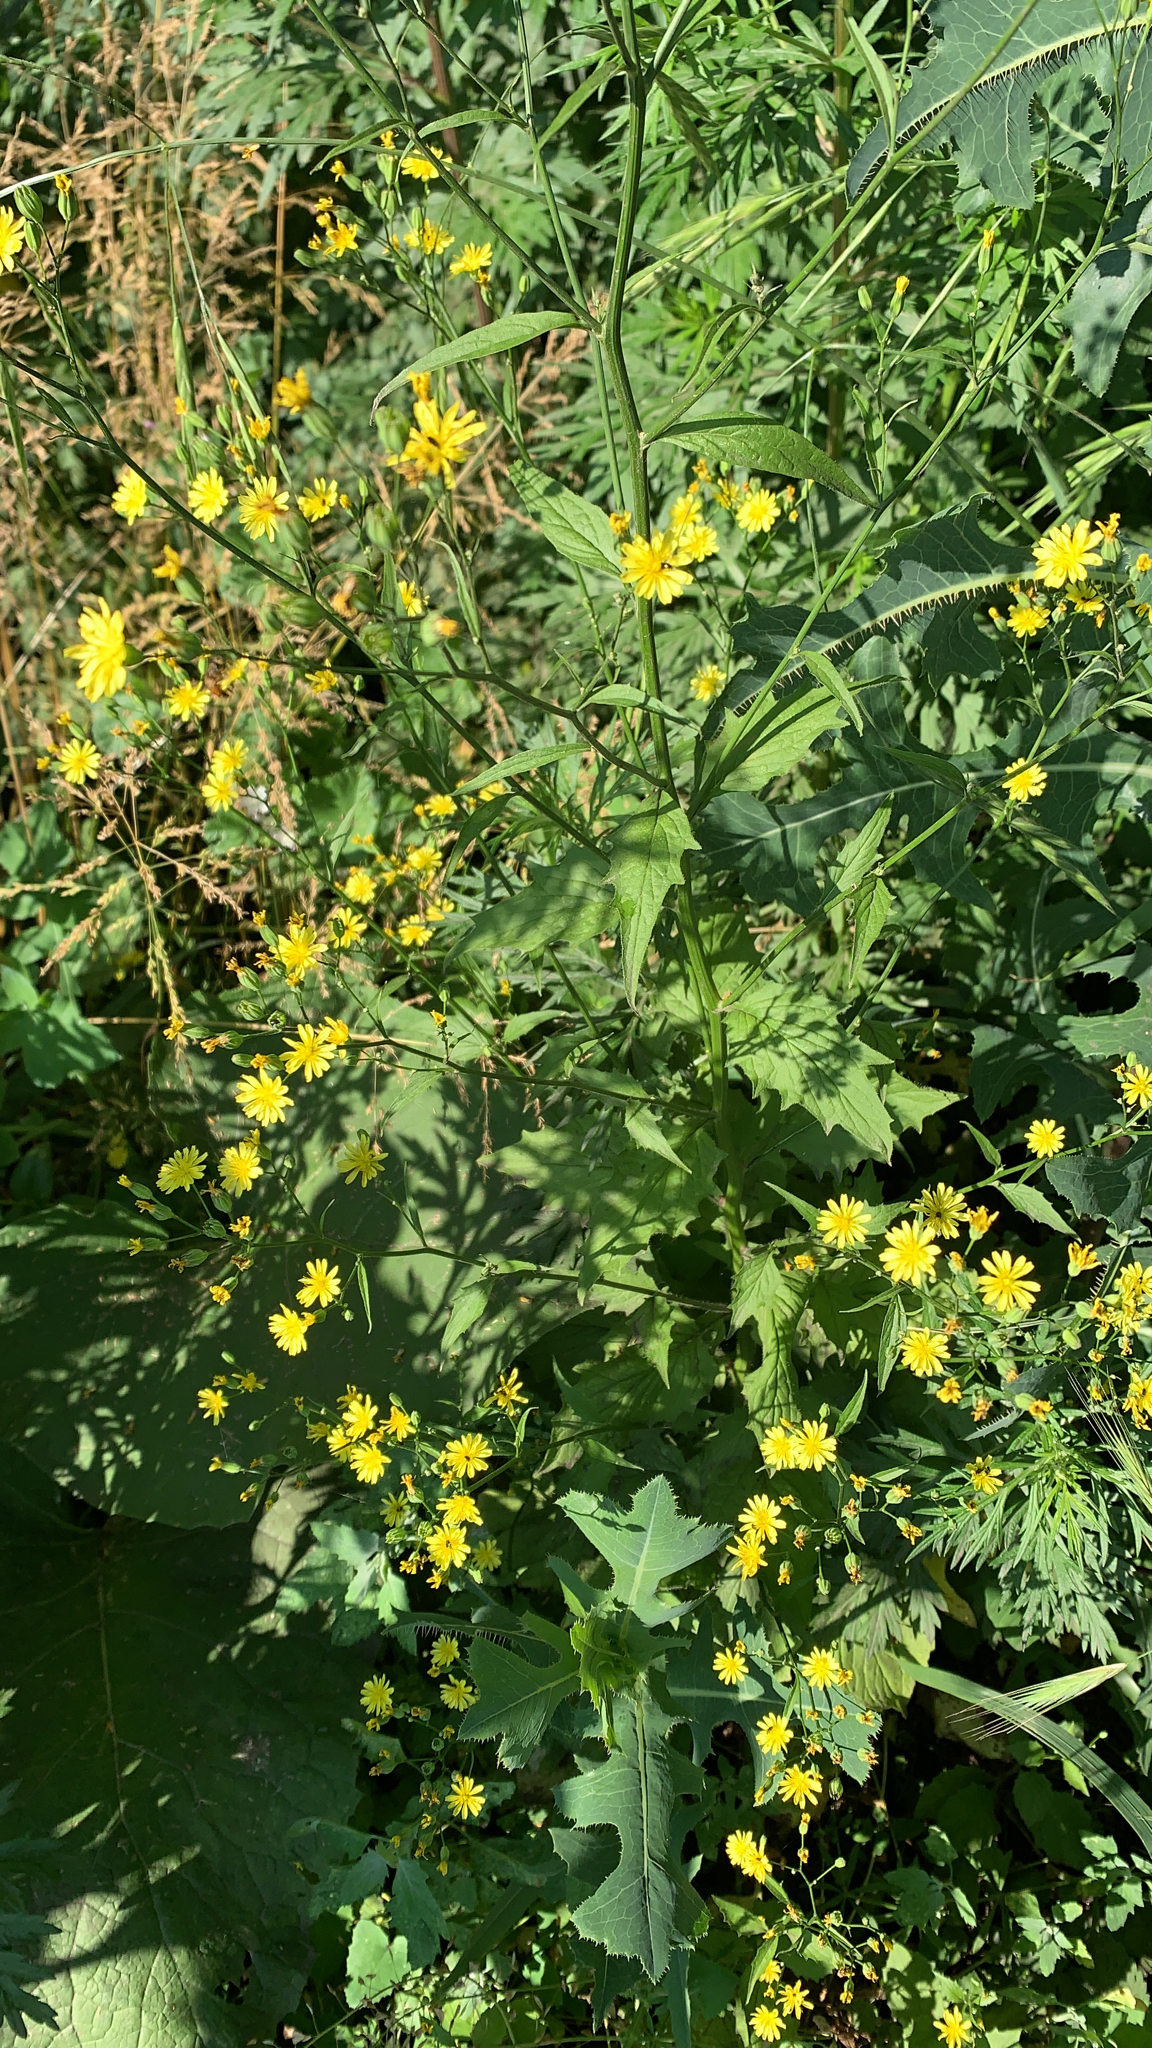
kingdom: Plantae
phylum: Tracheophyta
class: Magnoliopsida
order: Asterales
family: Asteraceae
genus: Lapsana
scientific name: Lapsana communis
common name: Nipplewort
